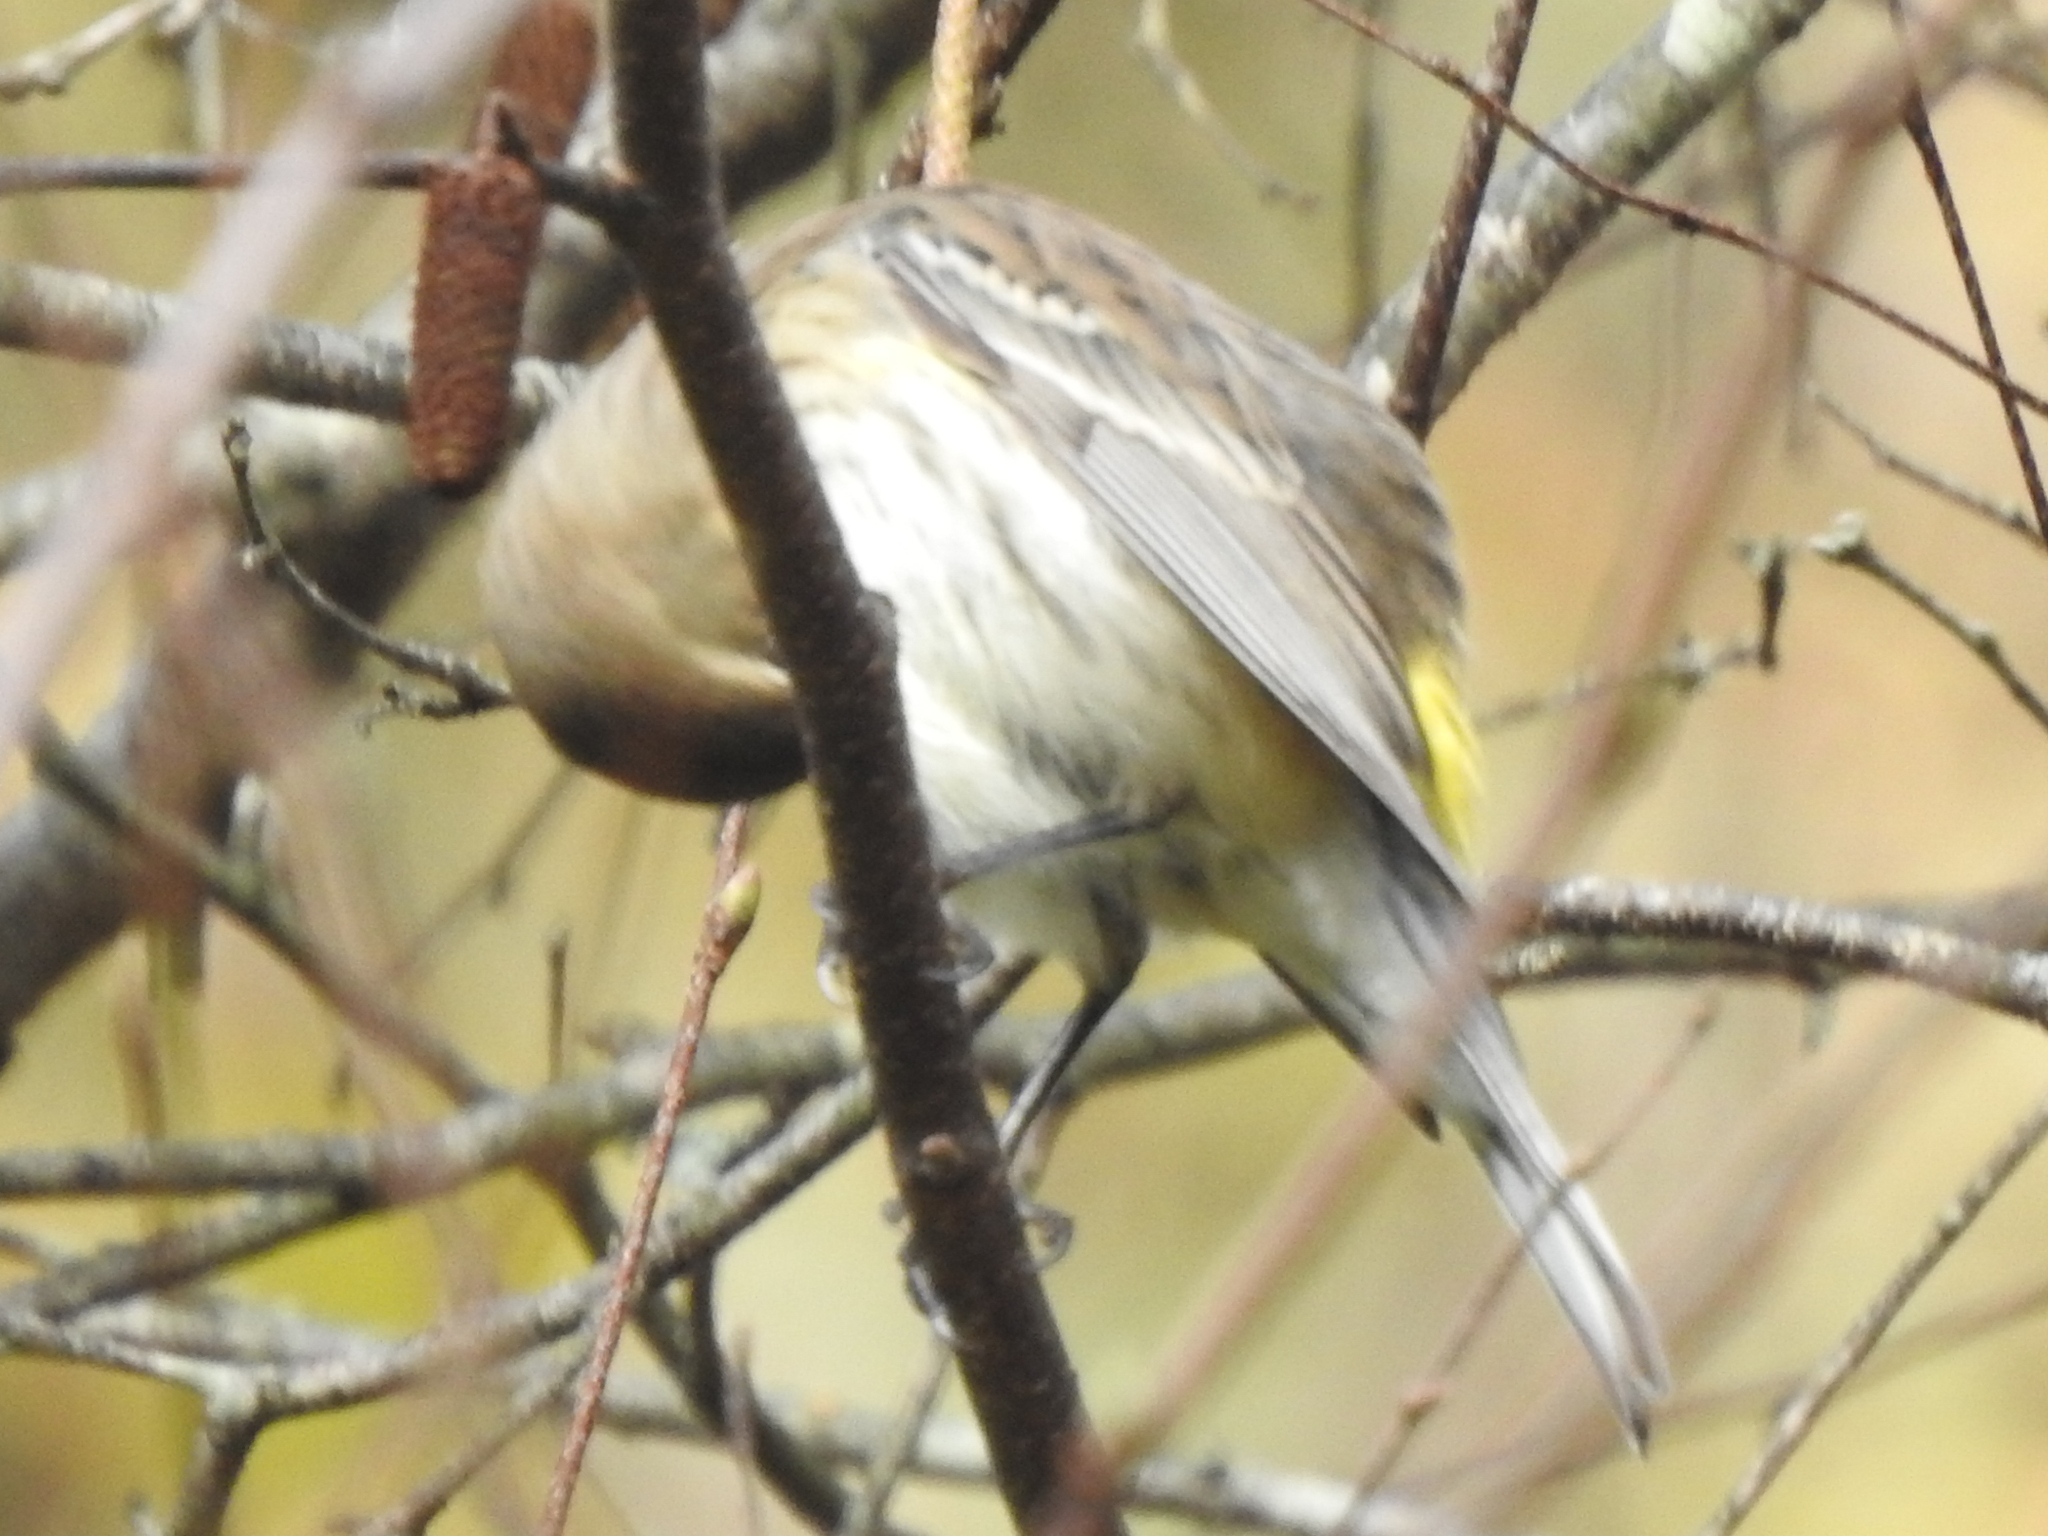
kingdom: Animalia
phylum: Chordata
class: Aves
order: Passeriformes
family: Parulidae
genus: Setophaga
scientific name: Setophaga coronata
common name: Myrtle warbler
